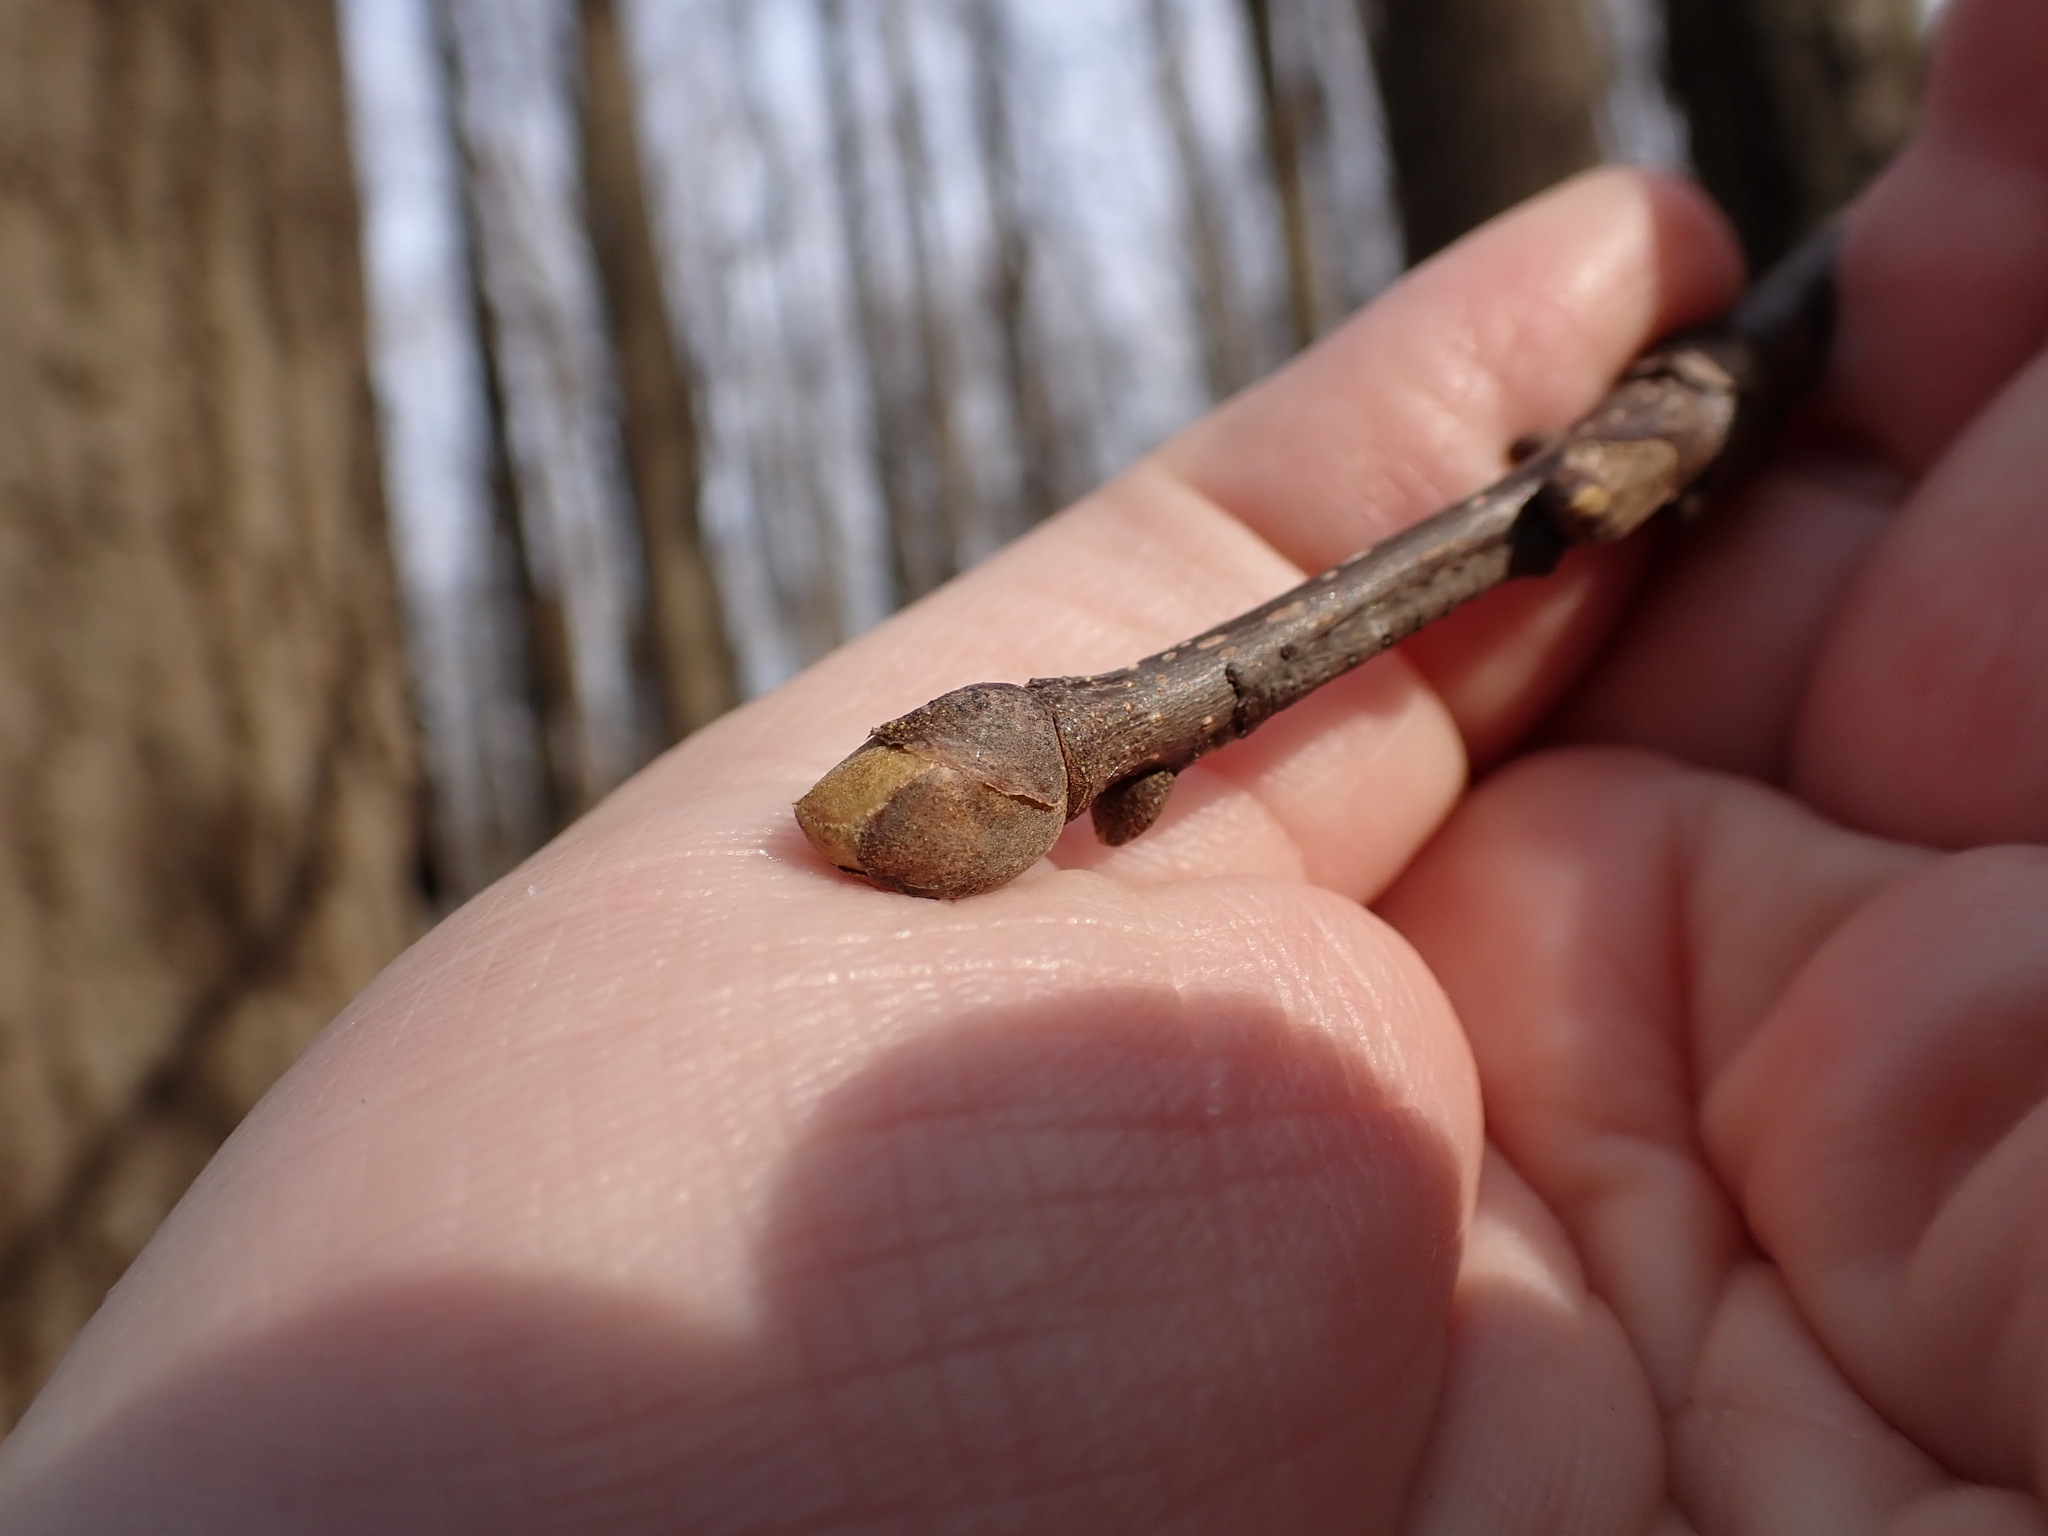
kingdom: Plantae
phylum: Tracheophyta
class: Magnoliopsida
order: Fagales
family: Juglandaceae
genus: Carya
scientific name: Carya glabra
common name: Pignut hickory
